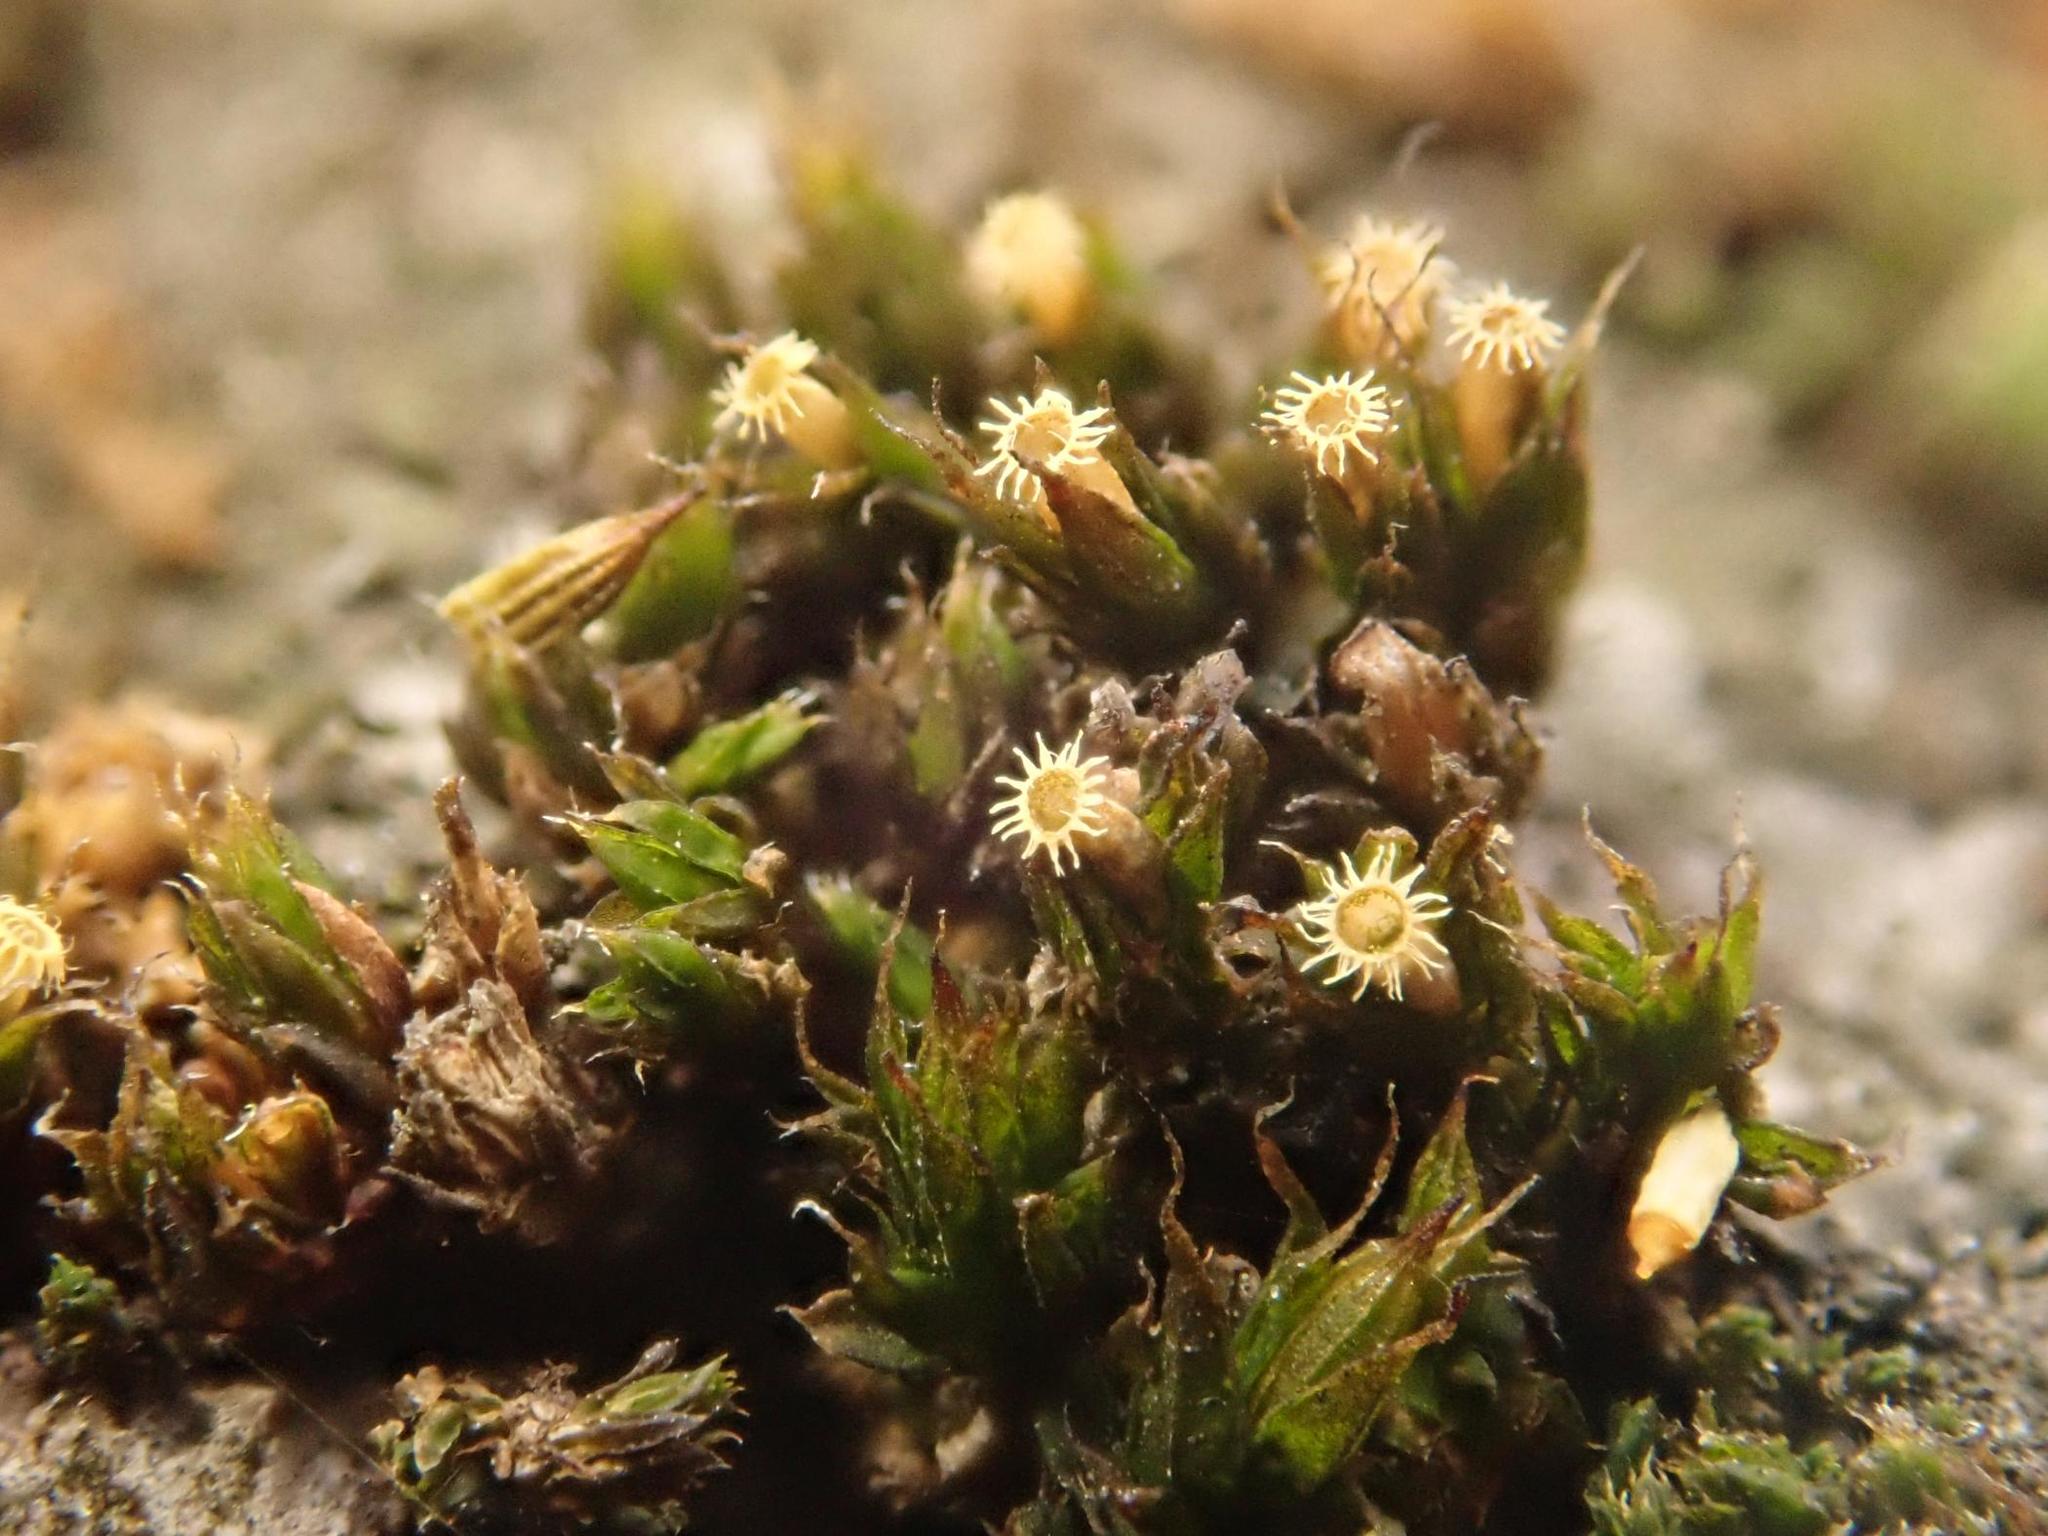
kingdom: Plantae
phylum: Bryophyta
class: Bryopsida
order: Orthotrichales
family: Orthotrichaceae
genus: Orthotrichum
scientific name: Orthotrichum diaphanum
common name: White-tipped bristle-moss
